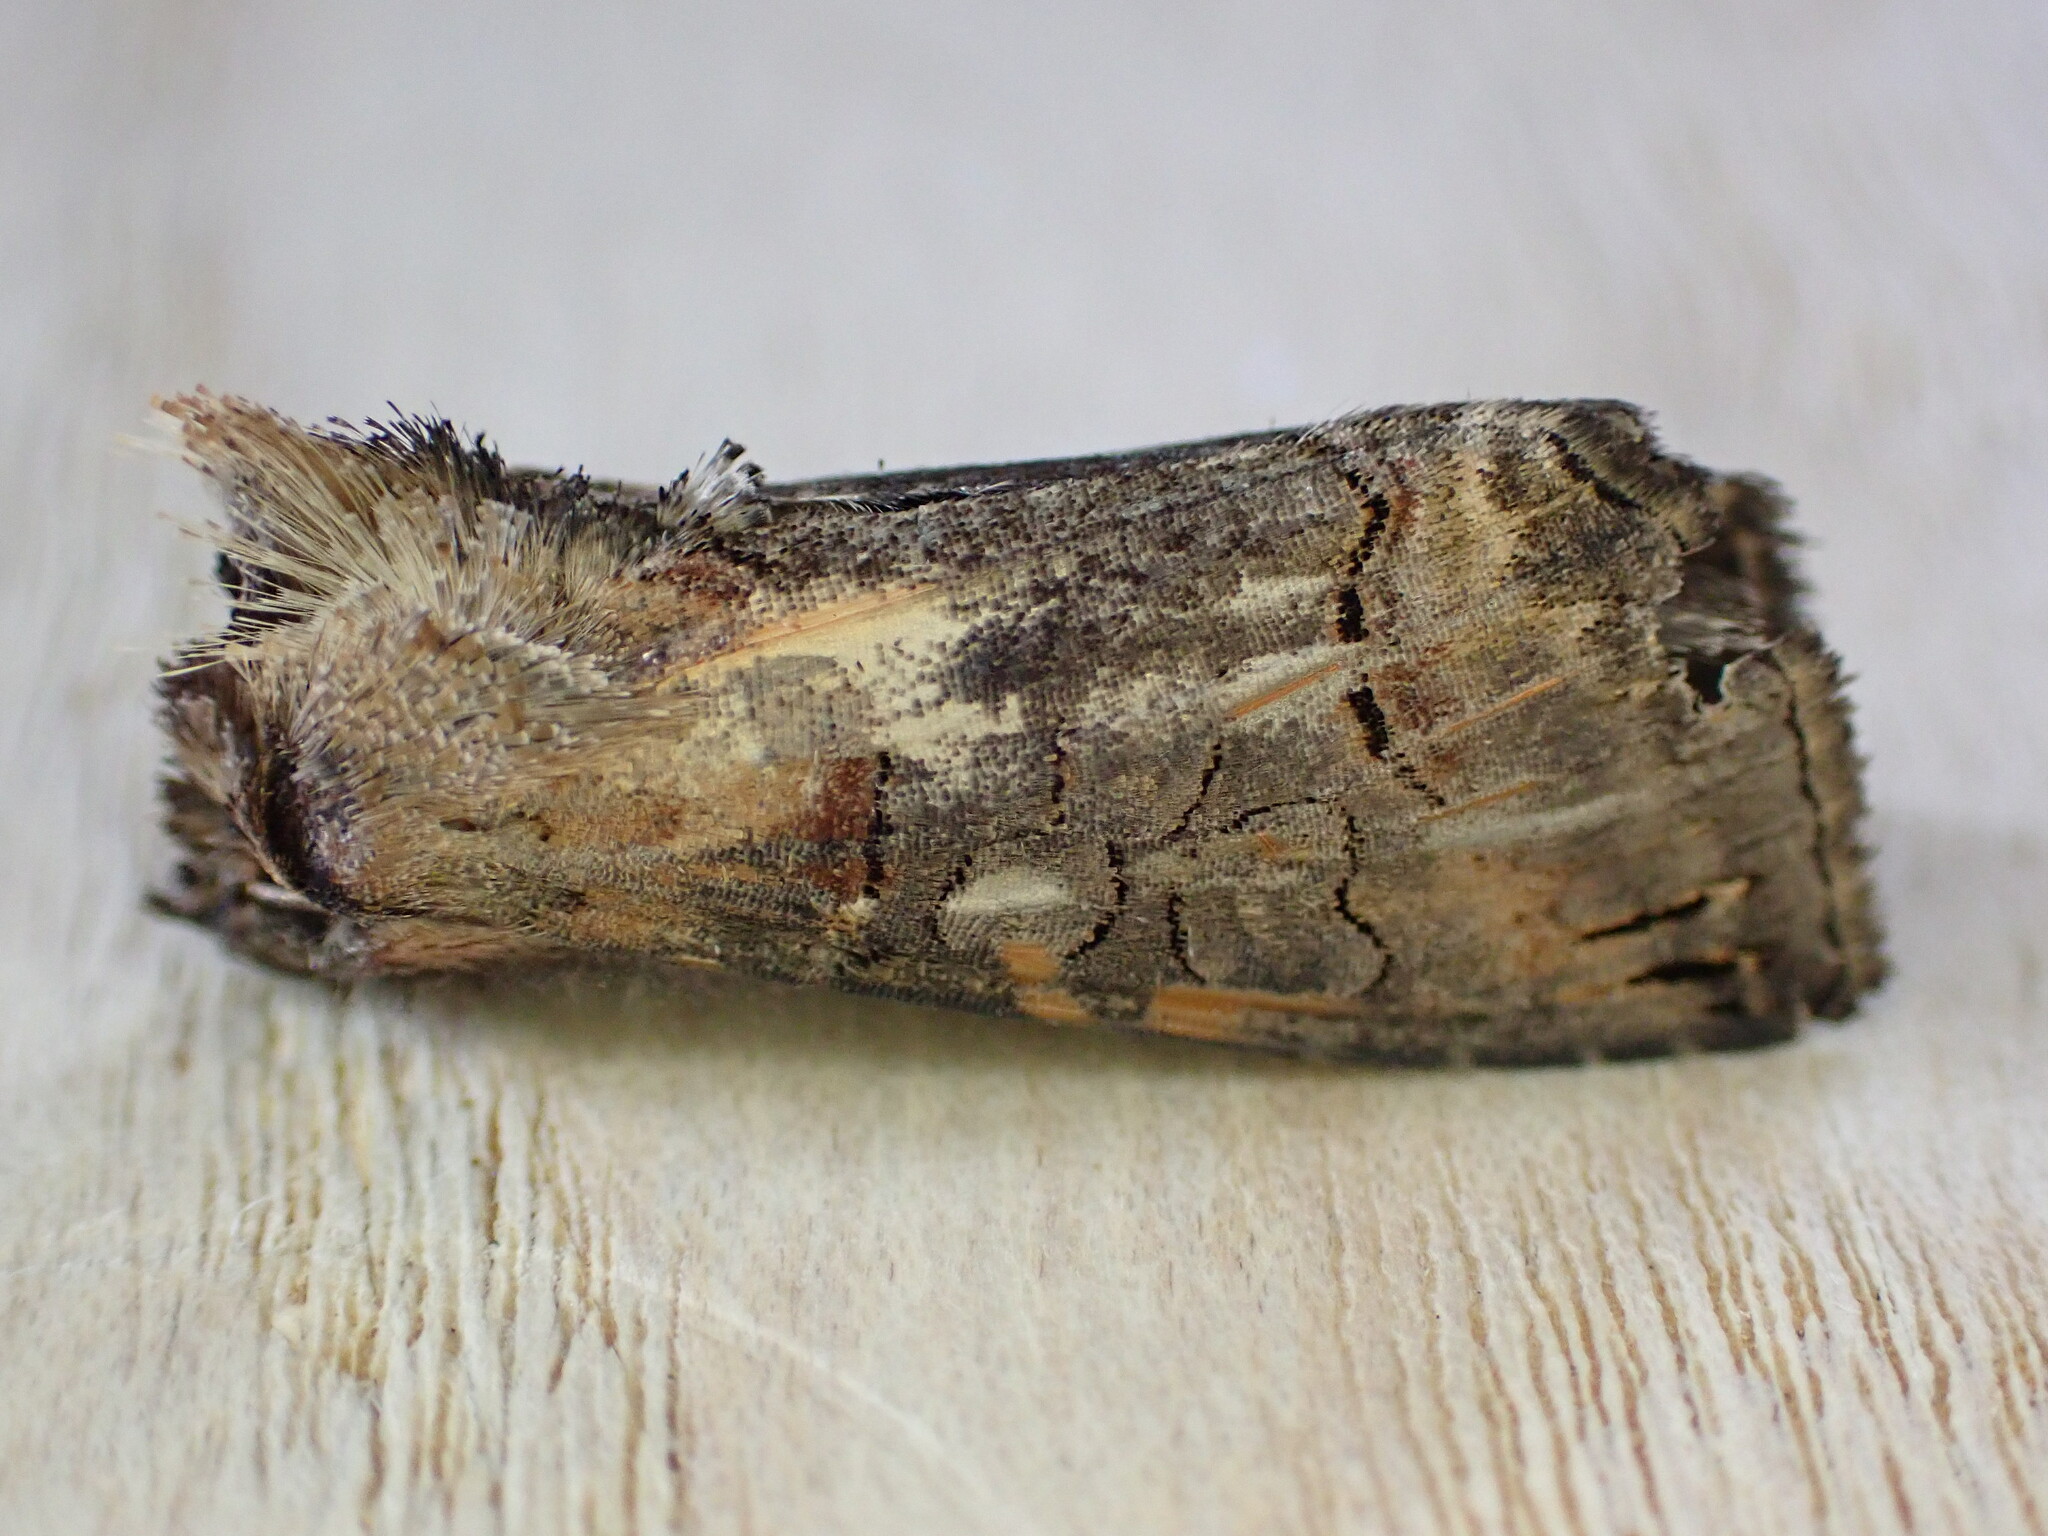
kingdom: Animalia
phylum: Arthropoda
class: Insecta
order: Lepidoptera
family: Noctuidae
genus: Abrostola
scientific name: Abrostola triplasia
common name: Dark spectacle
